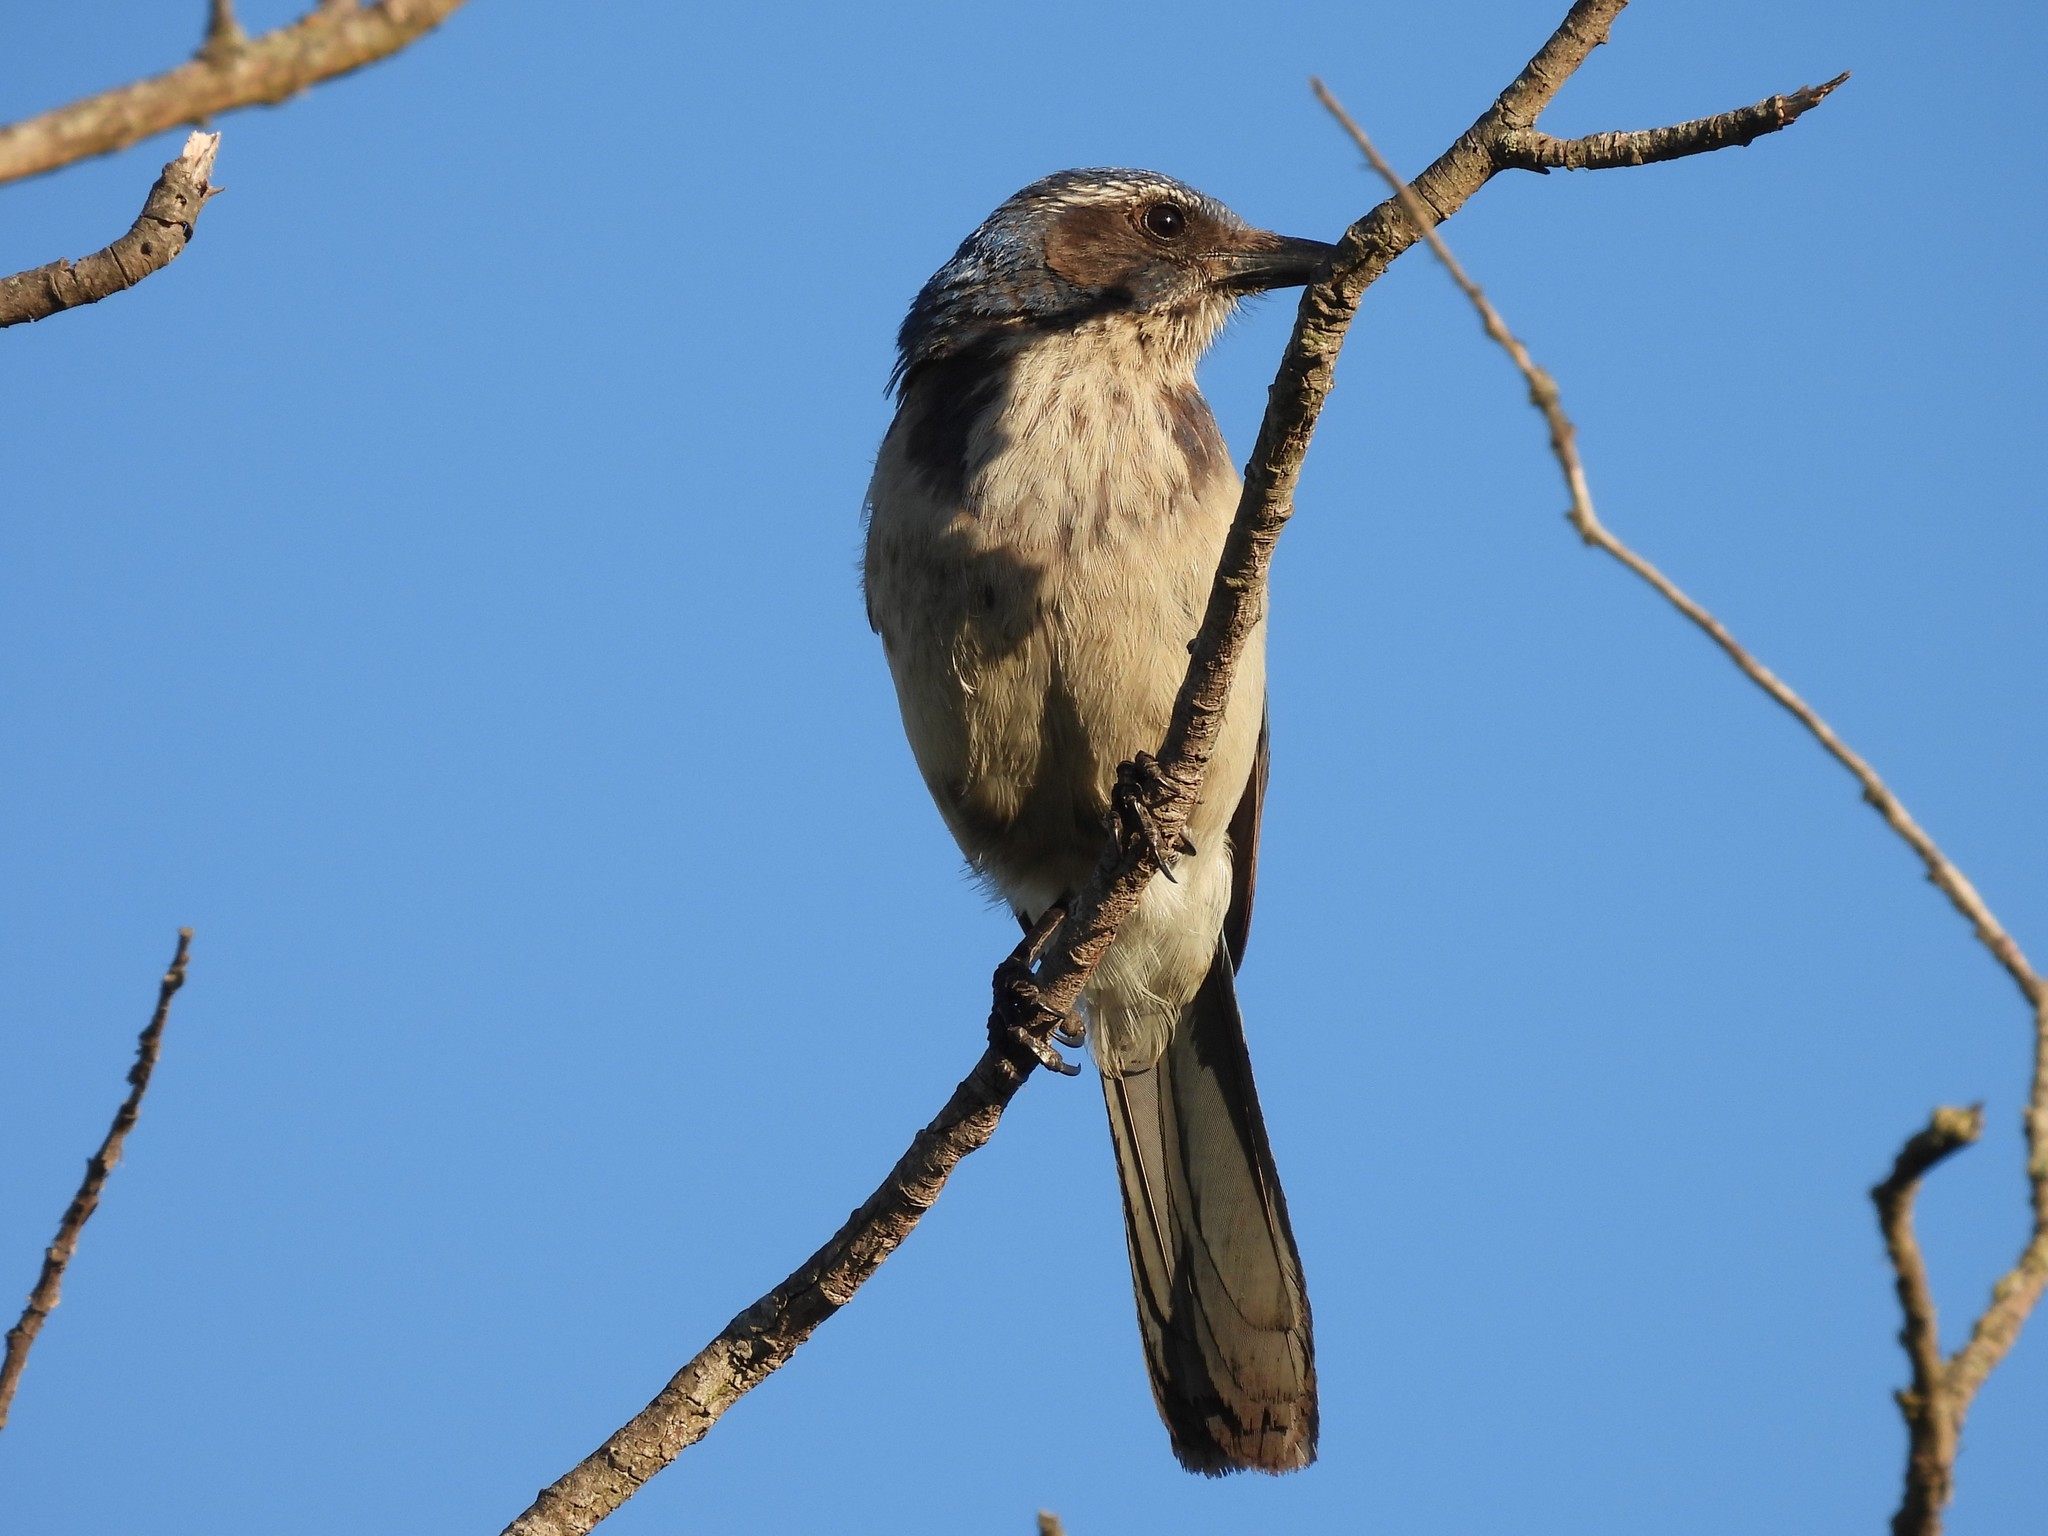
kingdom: Animalia
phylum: Chordata
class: Aves
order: Passeriformes
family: Corvidae
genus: Aphelocoma
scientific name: Aphelocoma californica
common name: California scrub-jay
